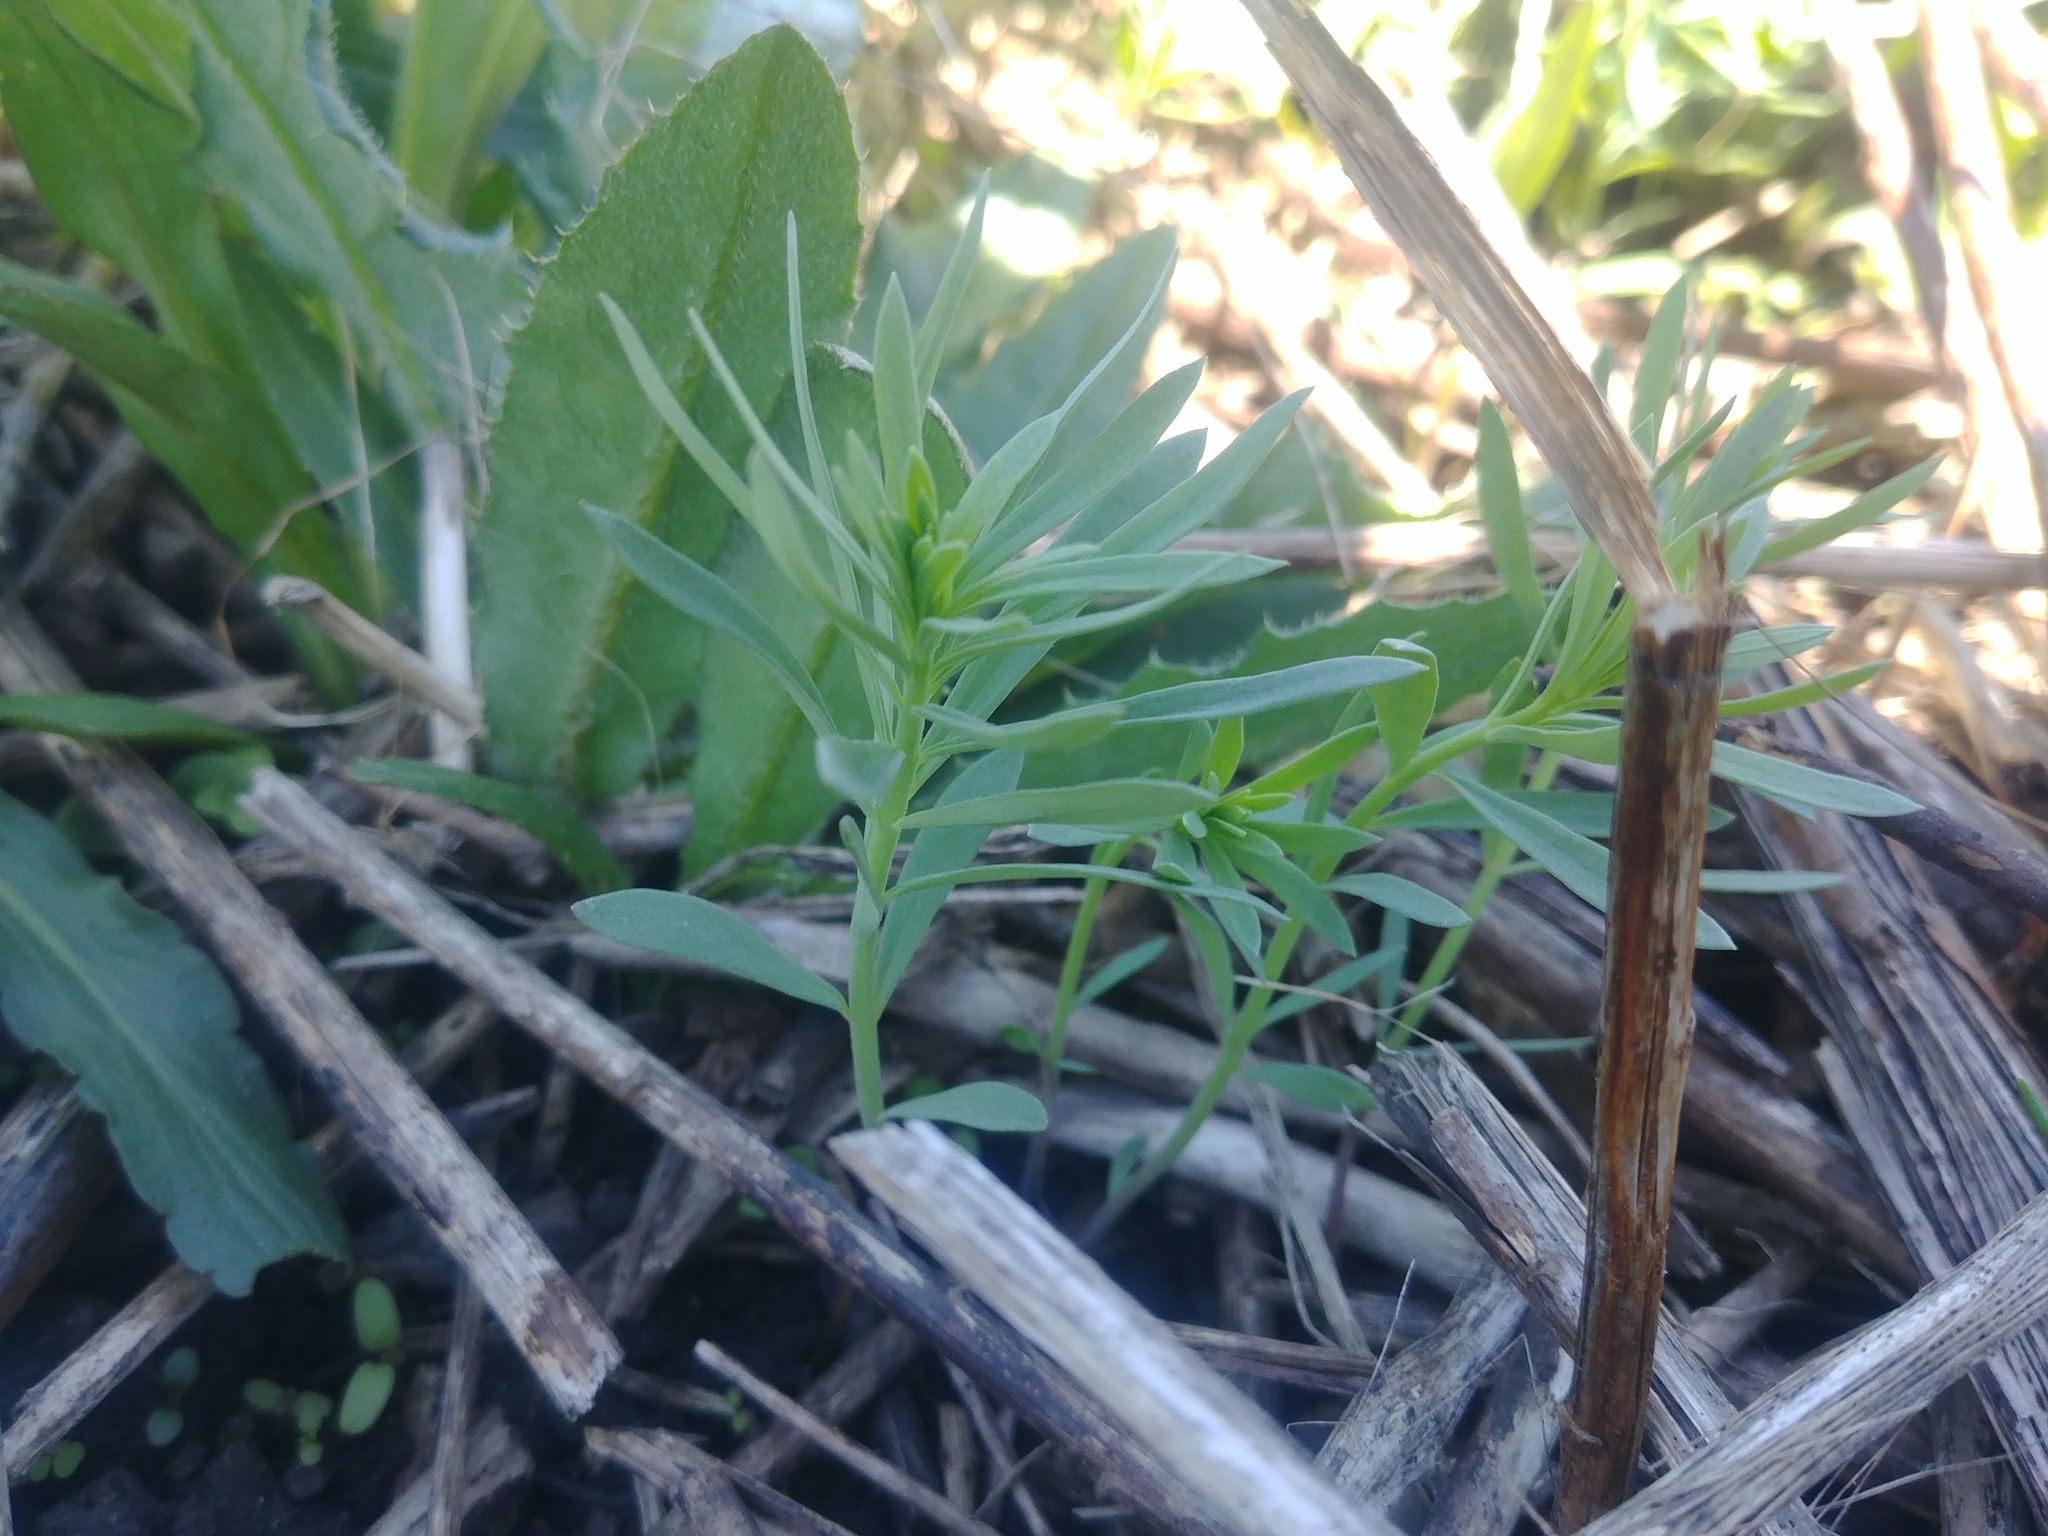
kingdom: Plantae
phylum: Tracheophyta
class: Magnoliopsida
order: Lamiales
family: Plantaginaceae
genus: Linaria
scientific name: Linaria vulgaris
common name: Butter and eggs
